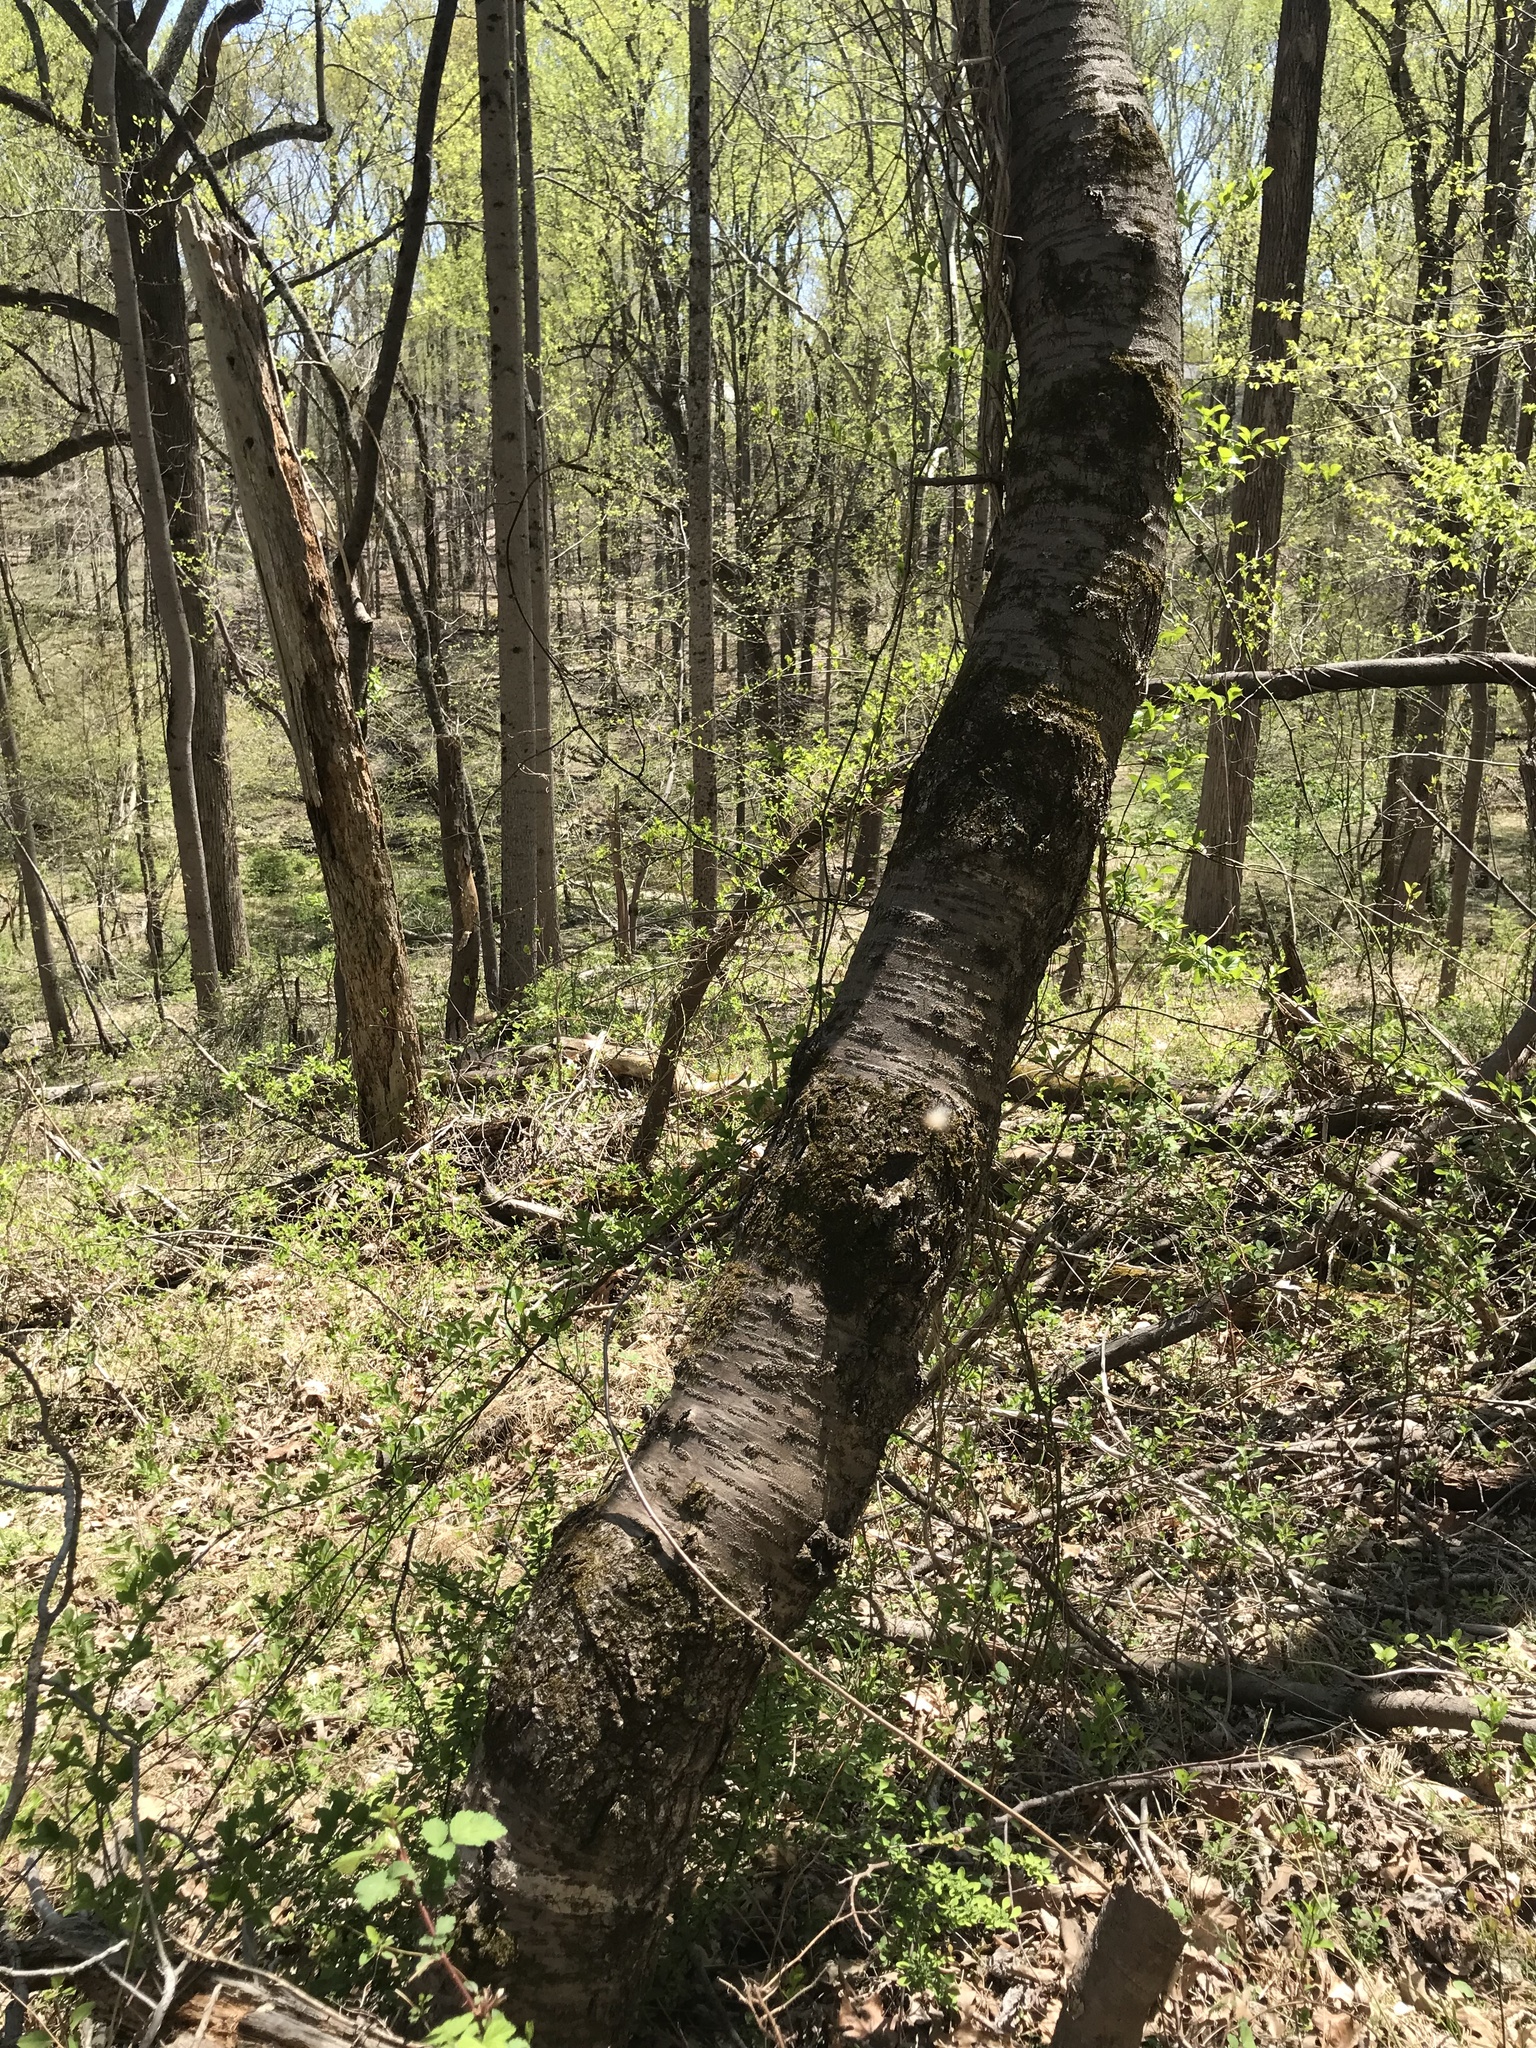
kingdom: Plantae
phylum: Tracheophyta
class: Magnoliopsida
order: Rosales
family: Rosaceae
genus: Prunus
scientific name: Prunus avium
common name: Sweet cherry
